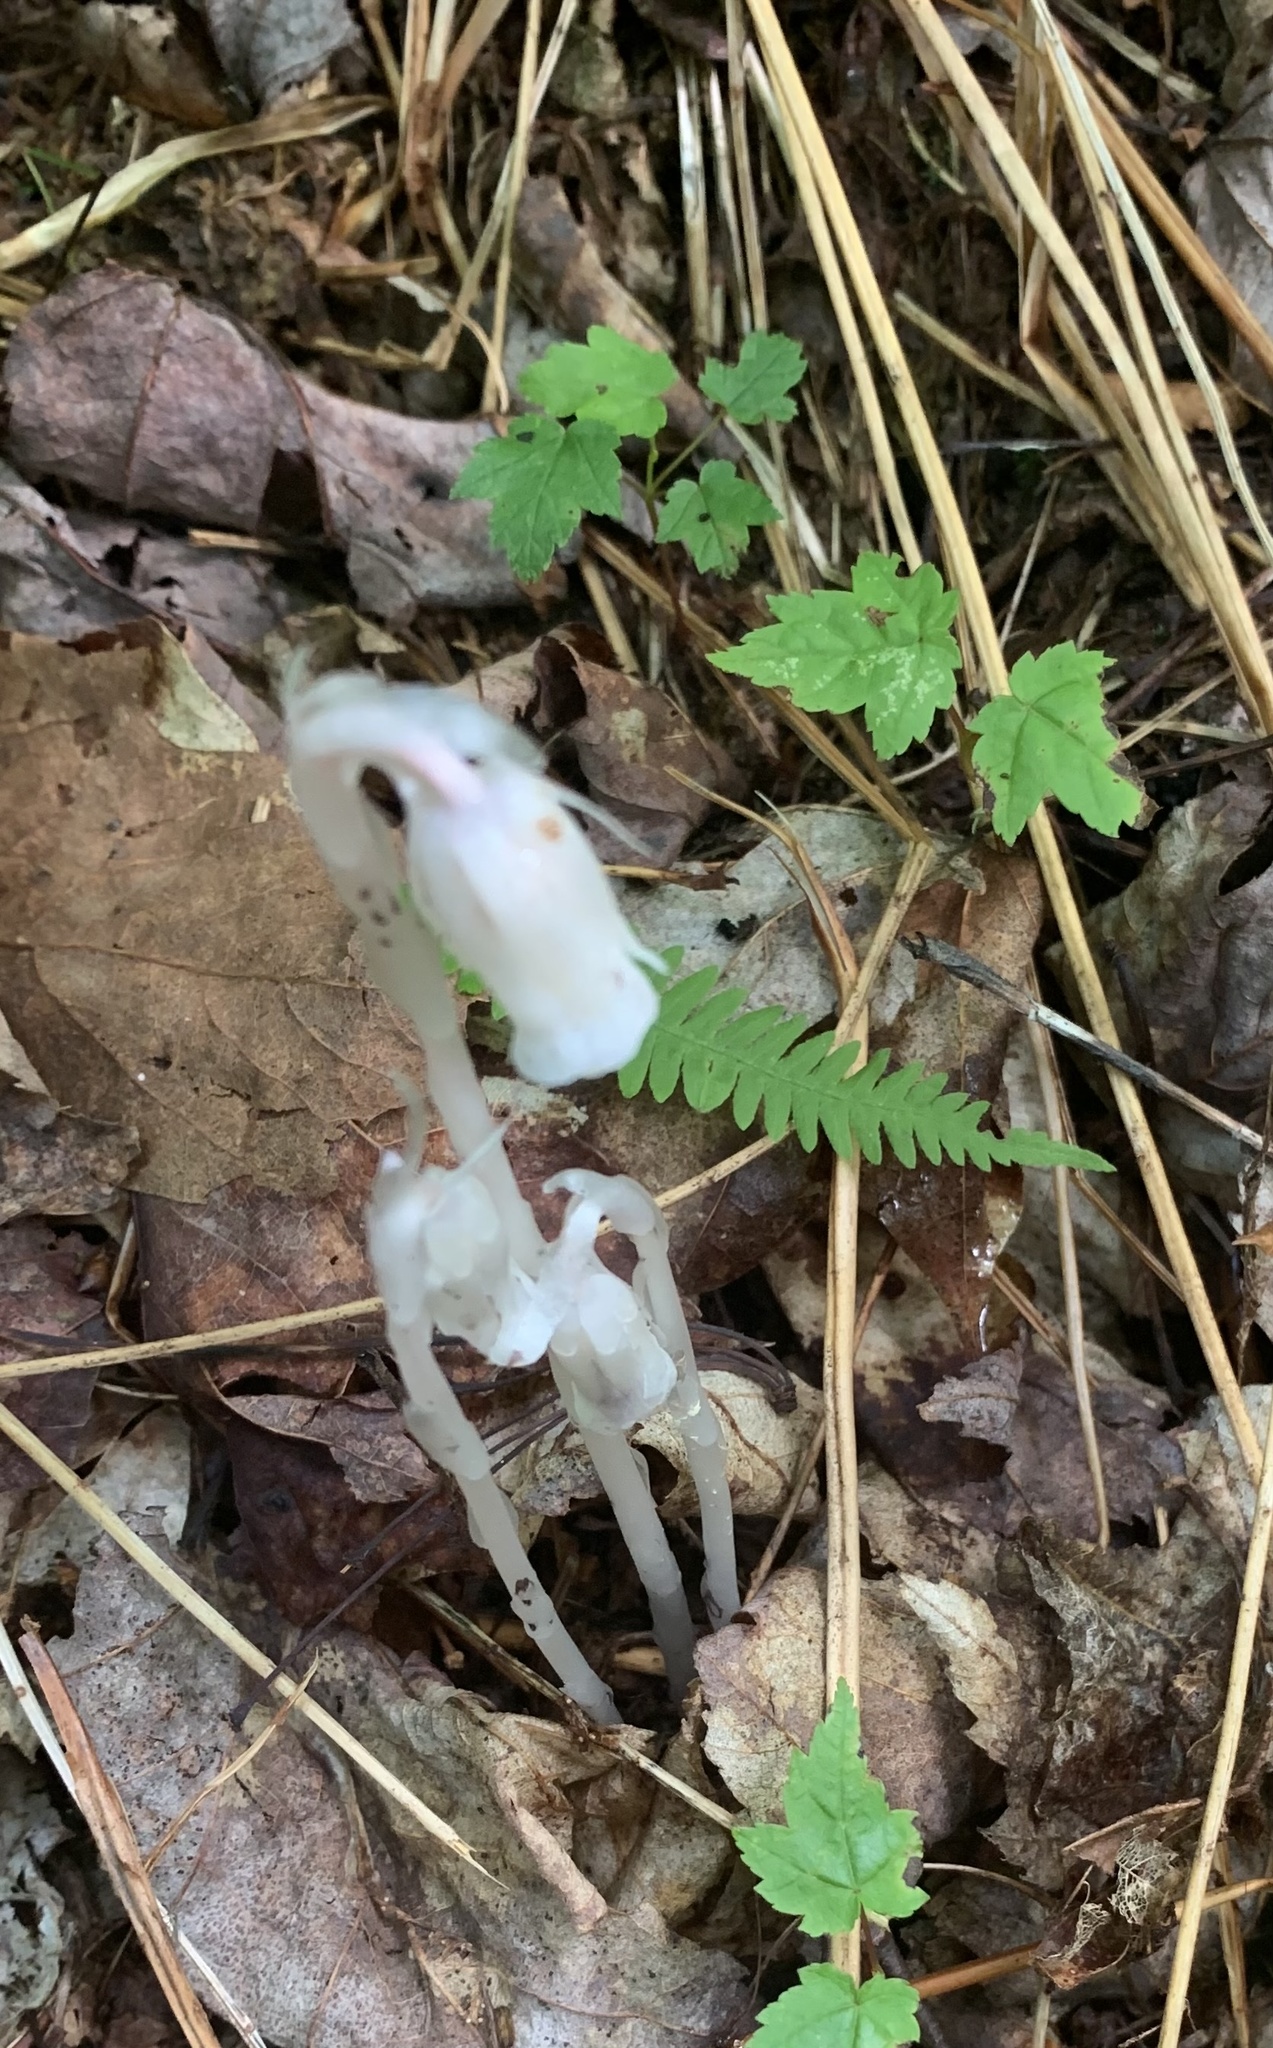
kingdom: Plantae
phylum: Tracheophyta
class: Magnoliopsida
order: Ericales
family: Ericaceae
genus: Monotropa
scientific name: Monotropa uniflora
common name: Convulsion root
